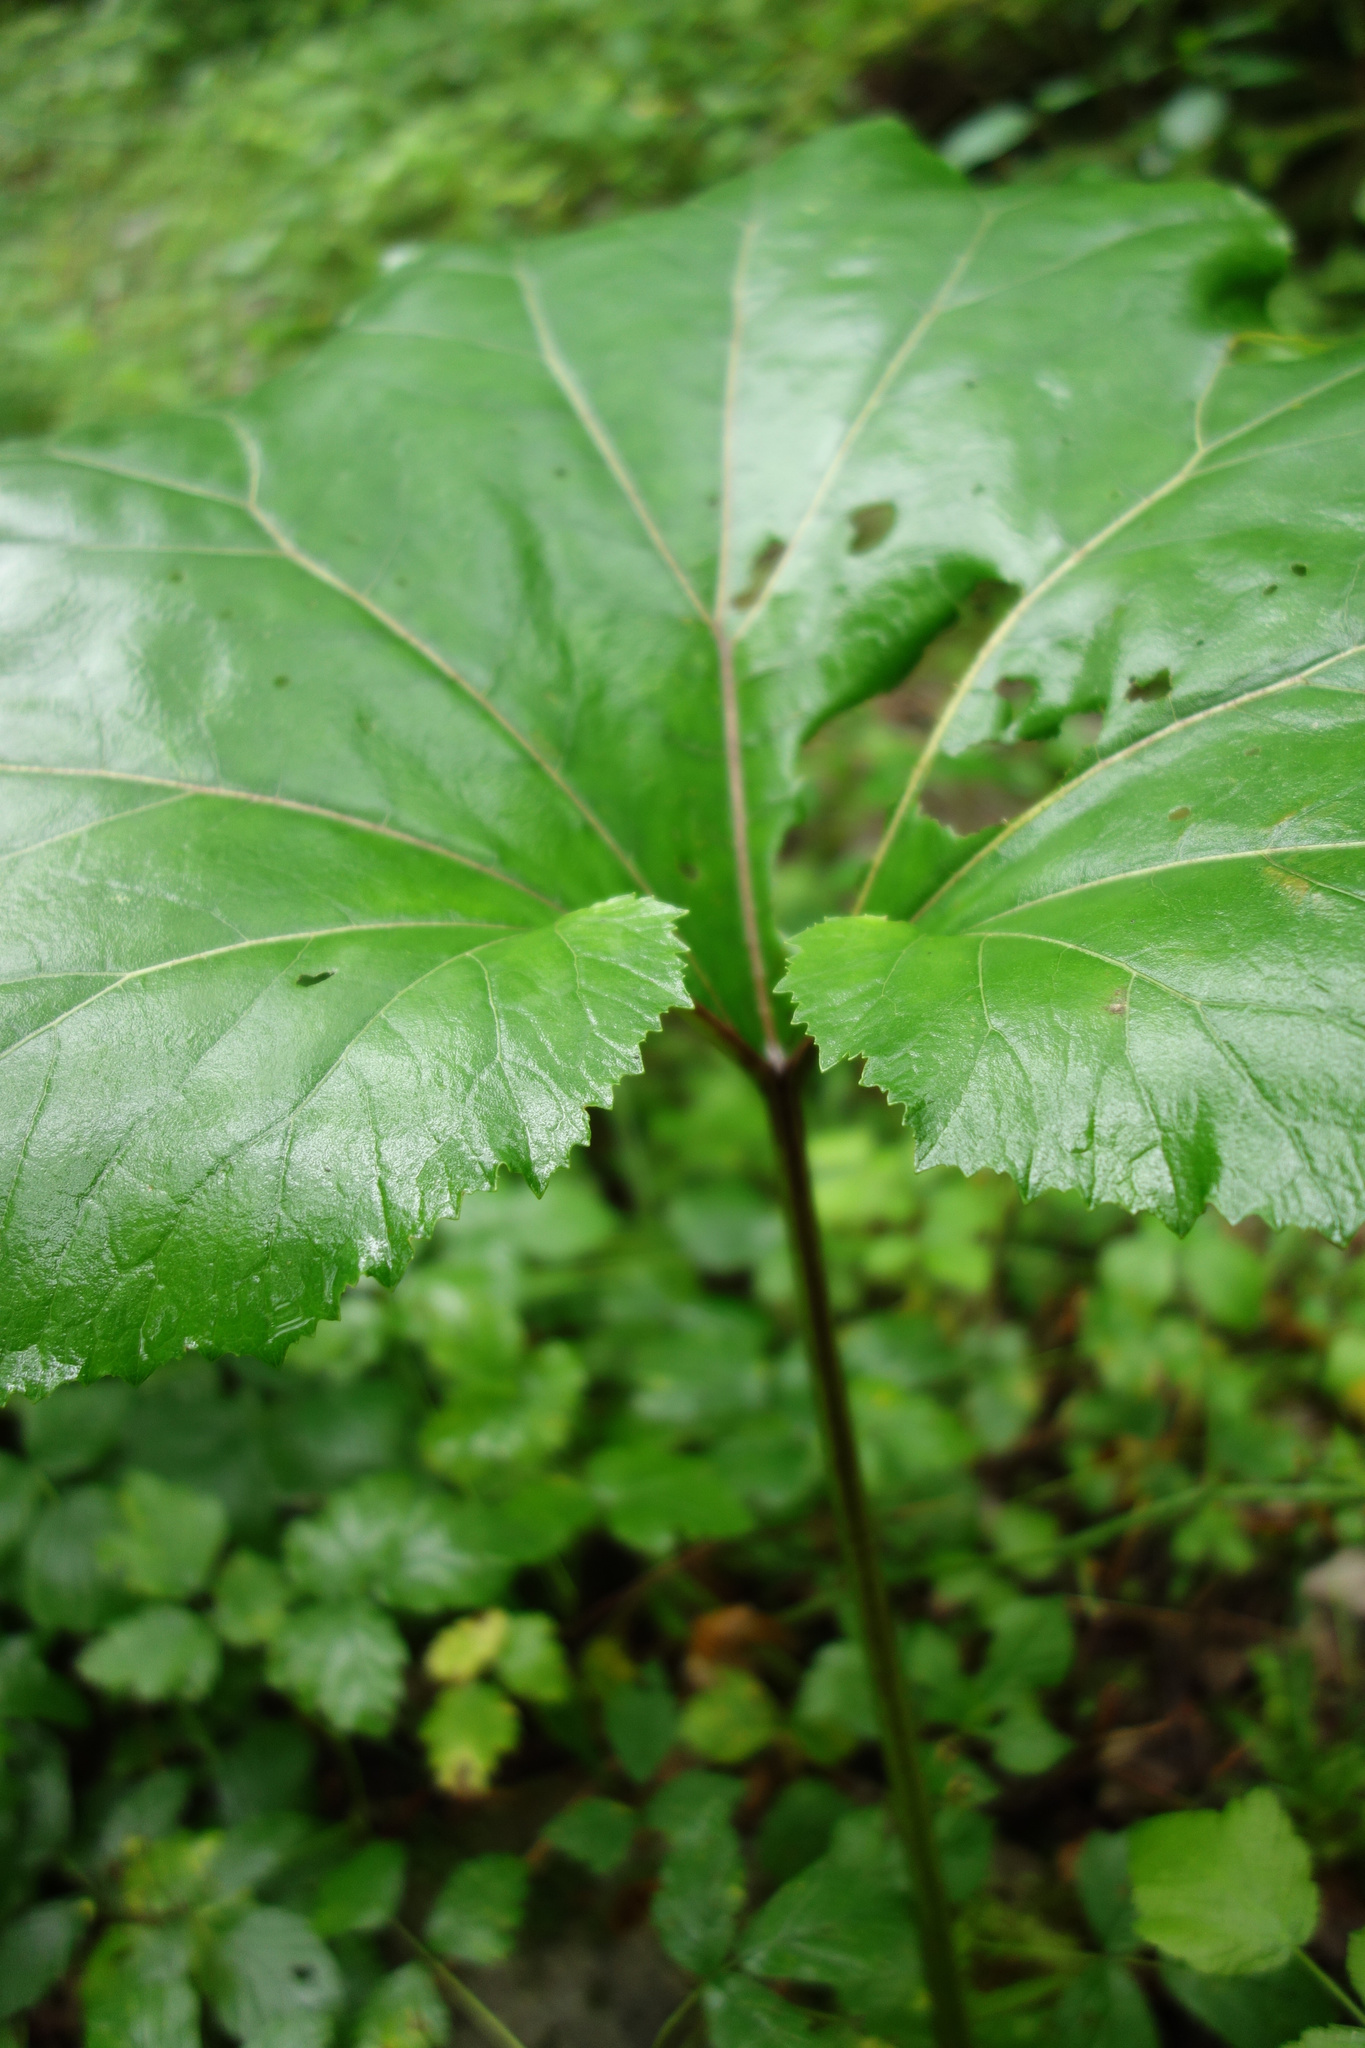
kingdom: Plantae
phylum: Tracheophyta
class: Magnoliopsida
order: Asterales
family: Asteraceae
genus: Petasites
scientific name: Petasites hybridus
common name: Butterbur
